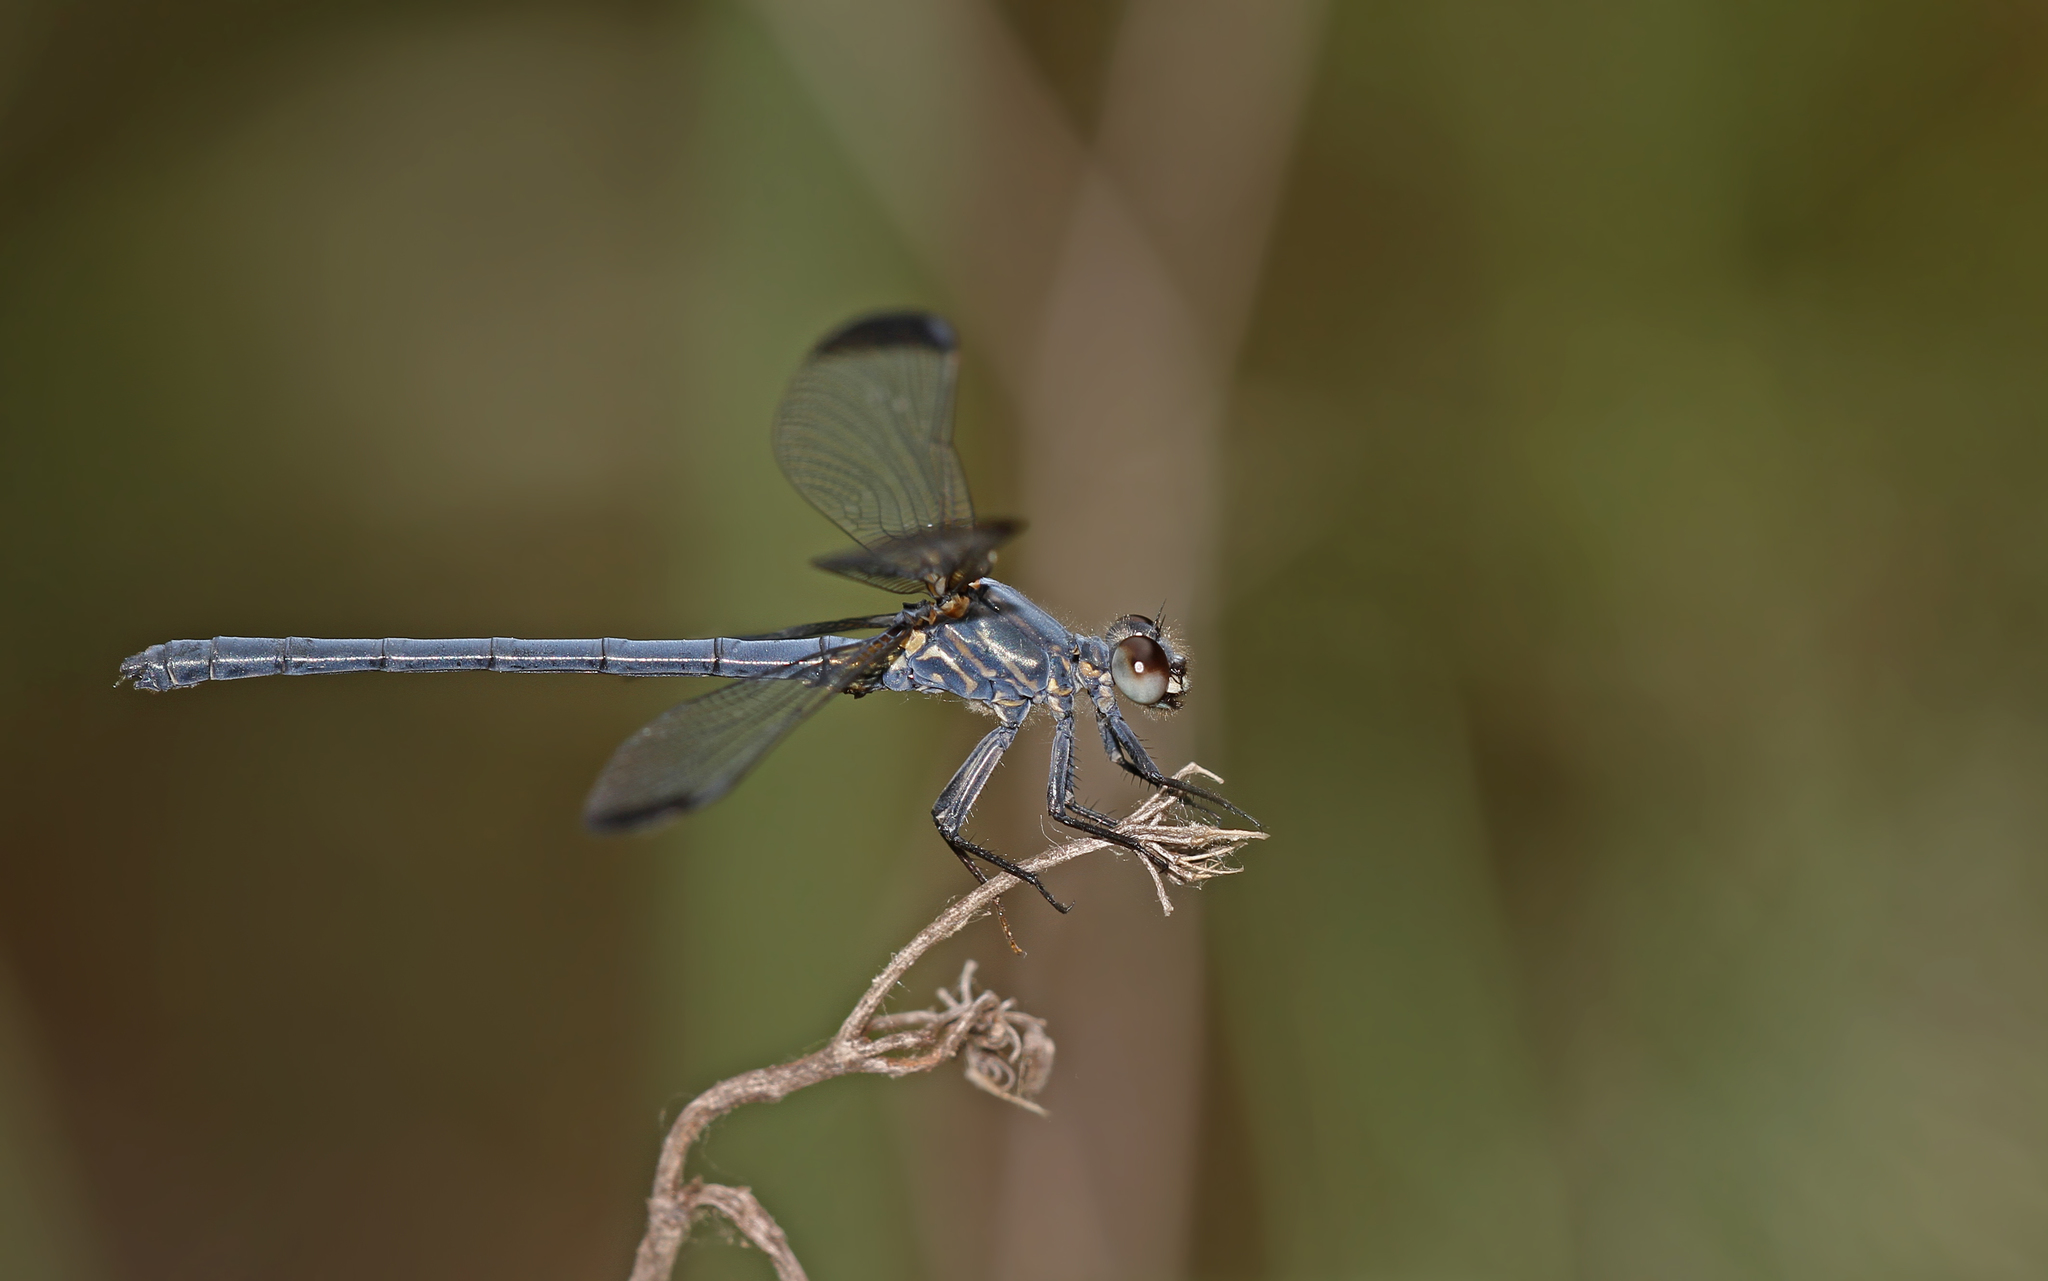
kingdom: Animalia
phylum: Arthropoda
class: Insecta
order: Odonata
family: Euphaeidae
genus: Epallage
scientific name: Epallage fatime
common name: Odalisque
